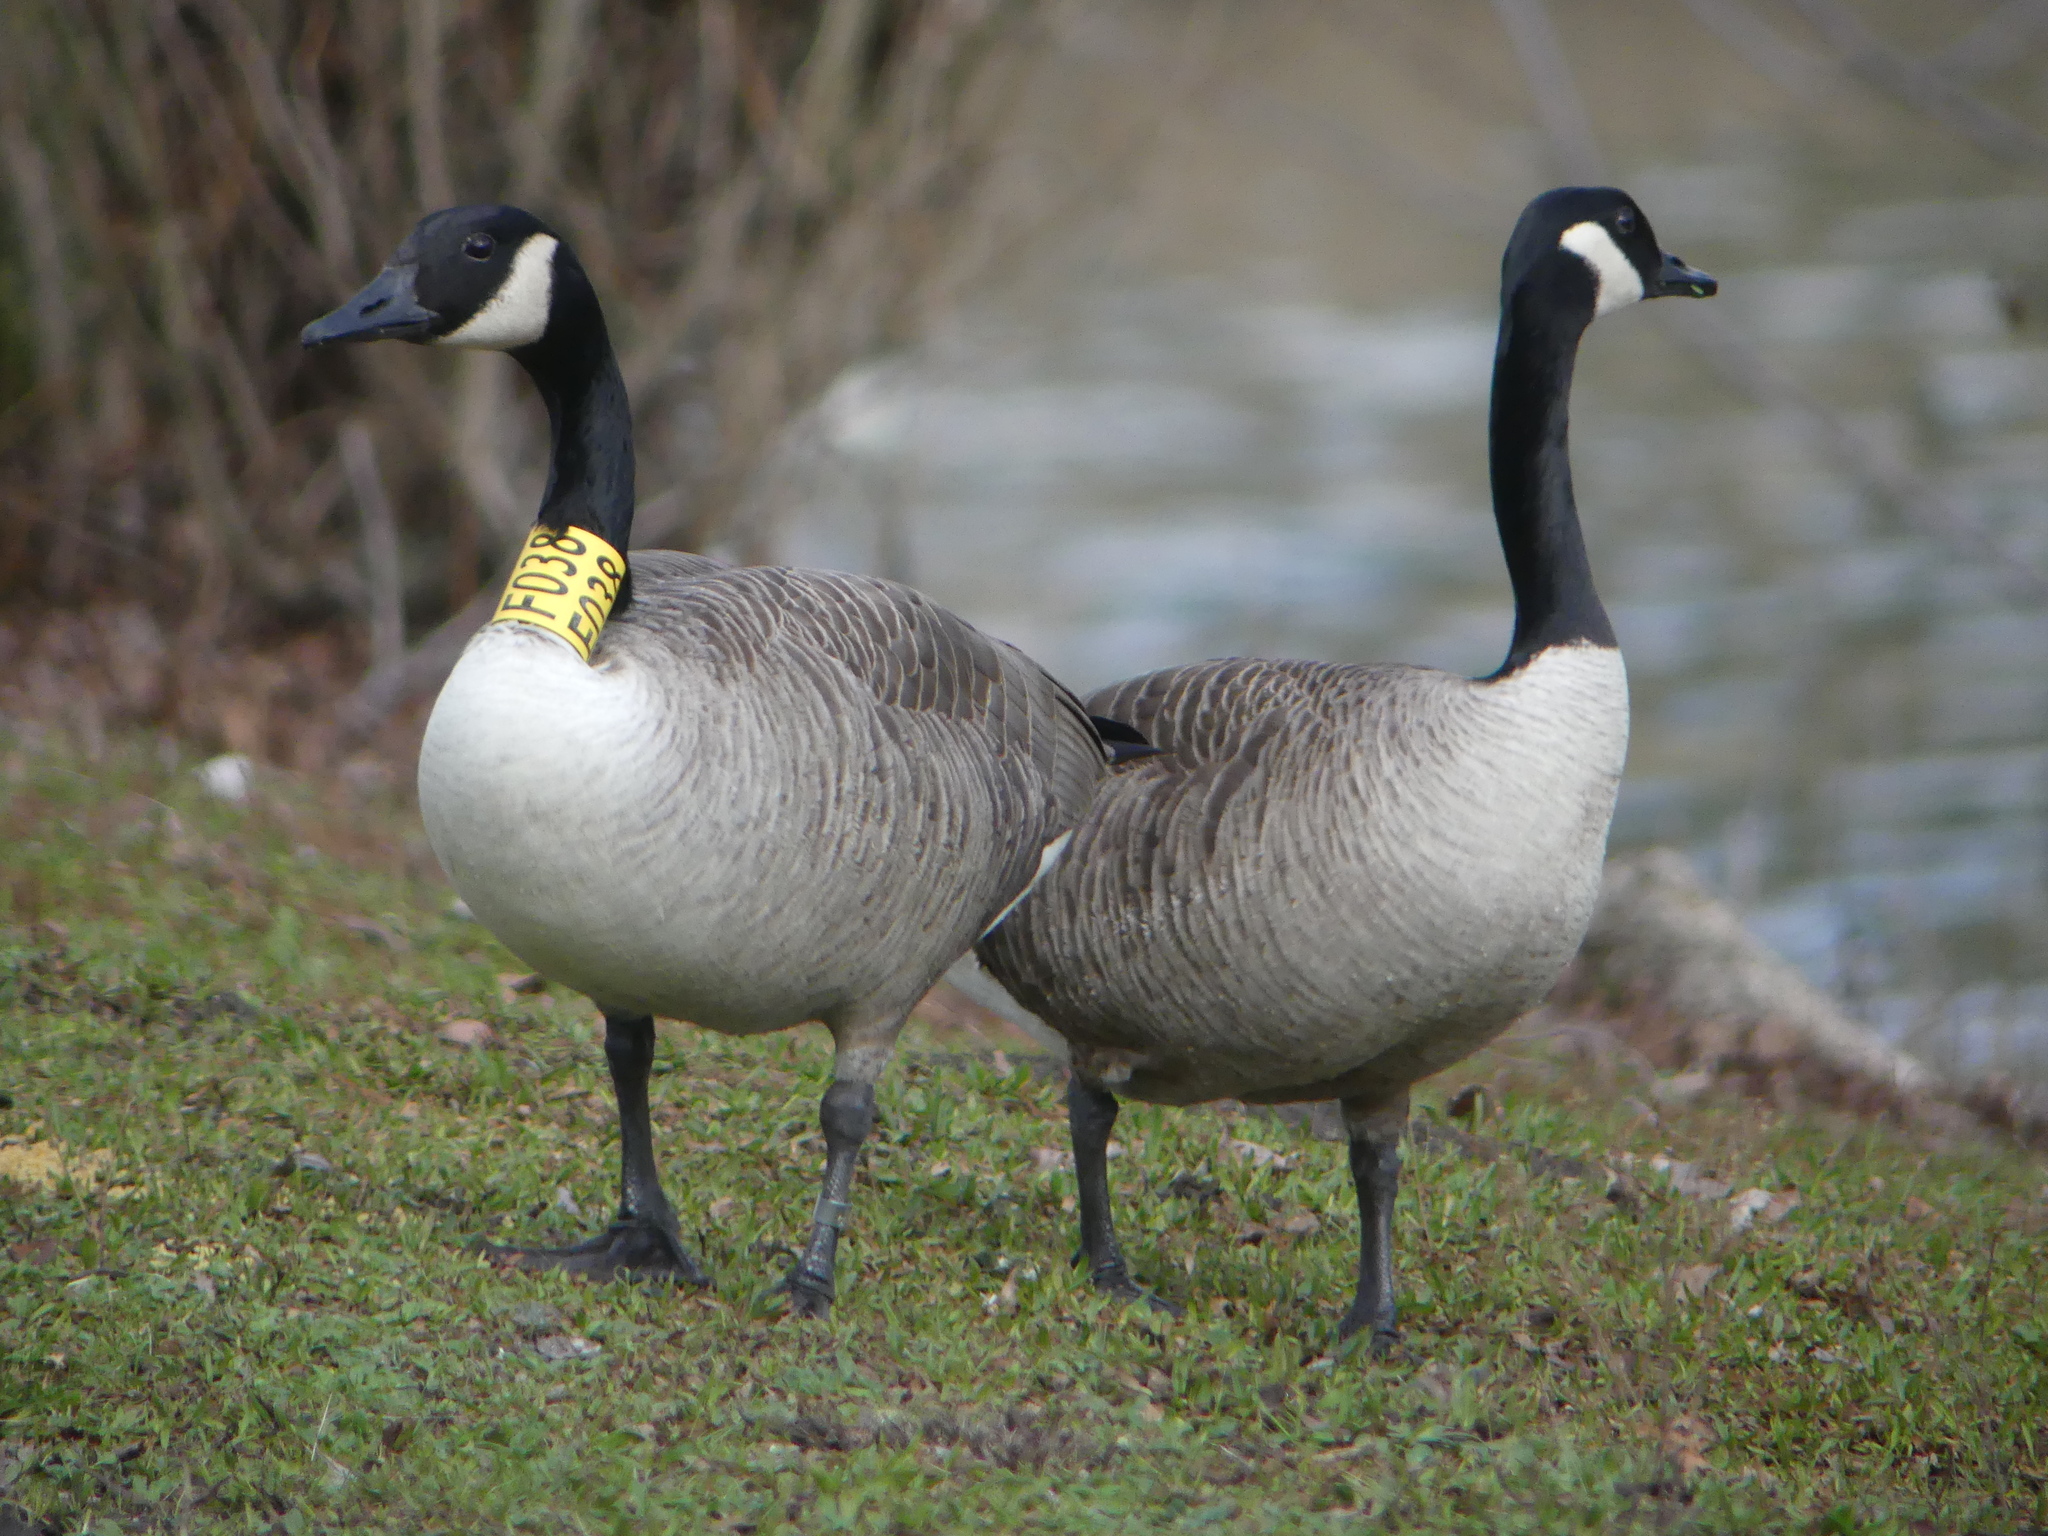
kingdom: Animalia
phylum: Chordata
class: Aves
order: Anseriformes
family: Anatidae
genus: Branta
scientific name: Branta canadensis
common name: Canada goose
